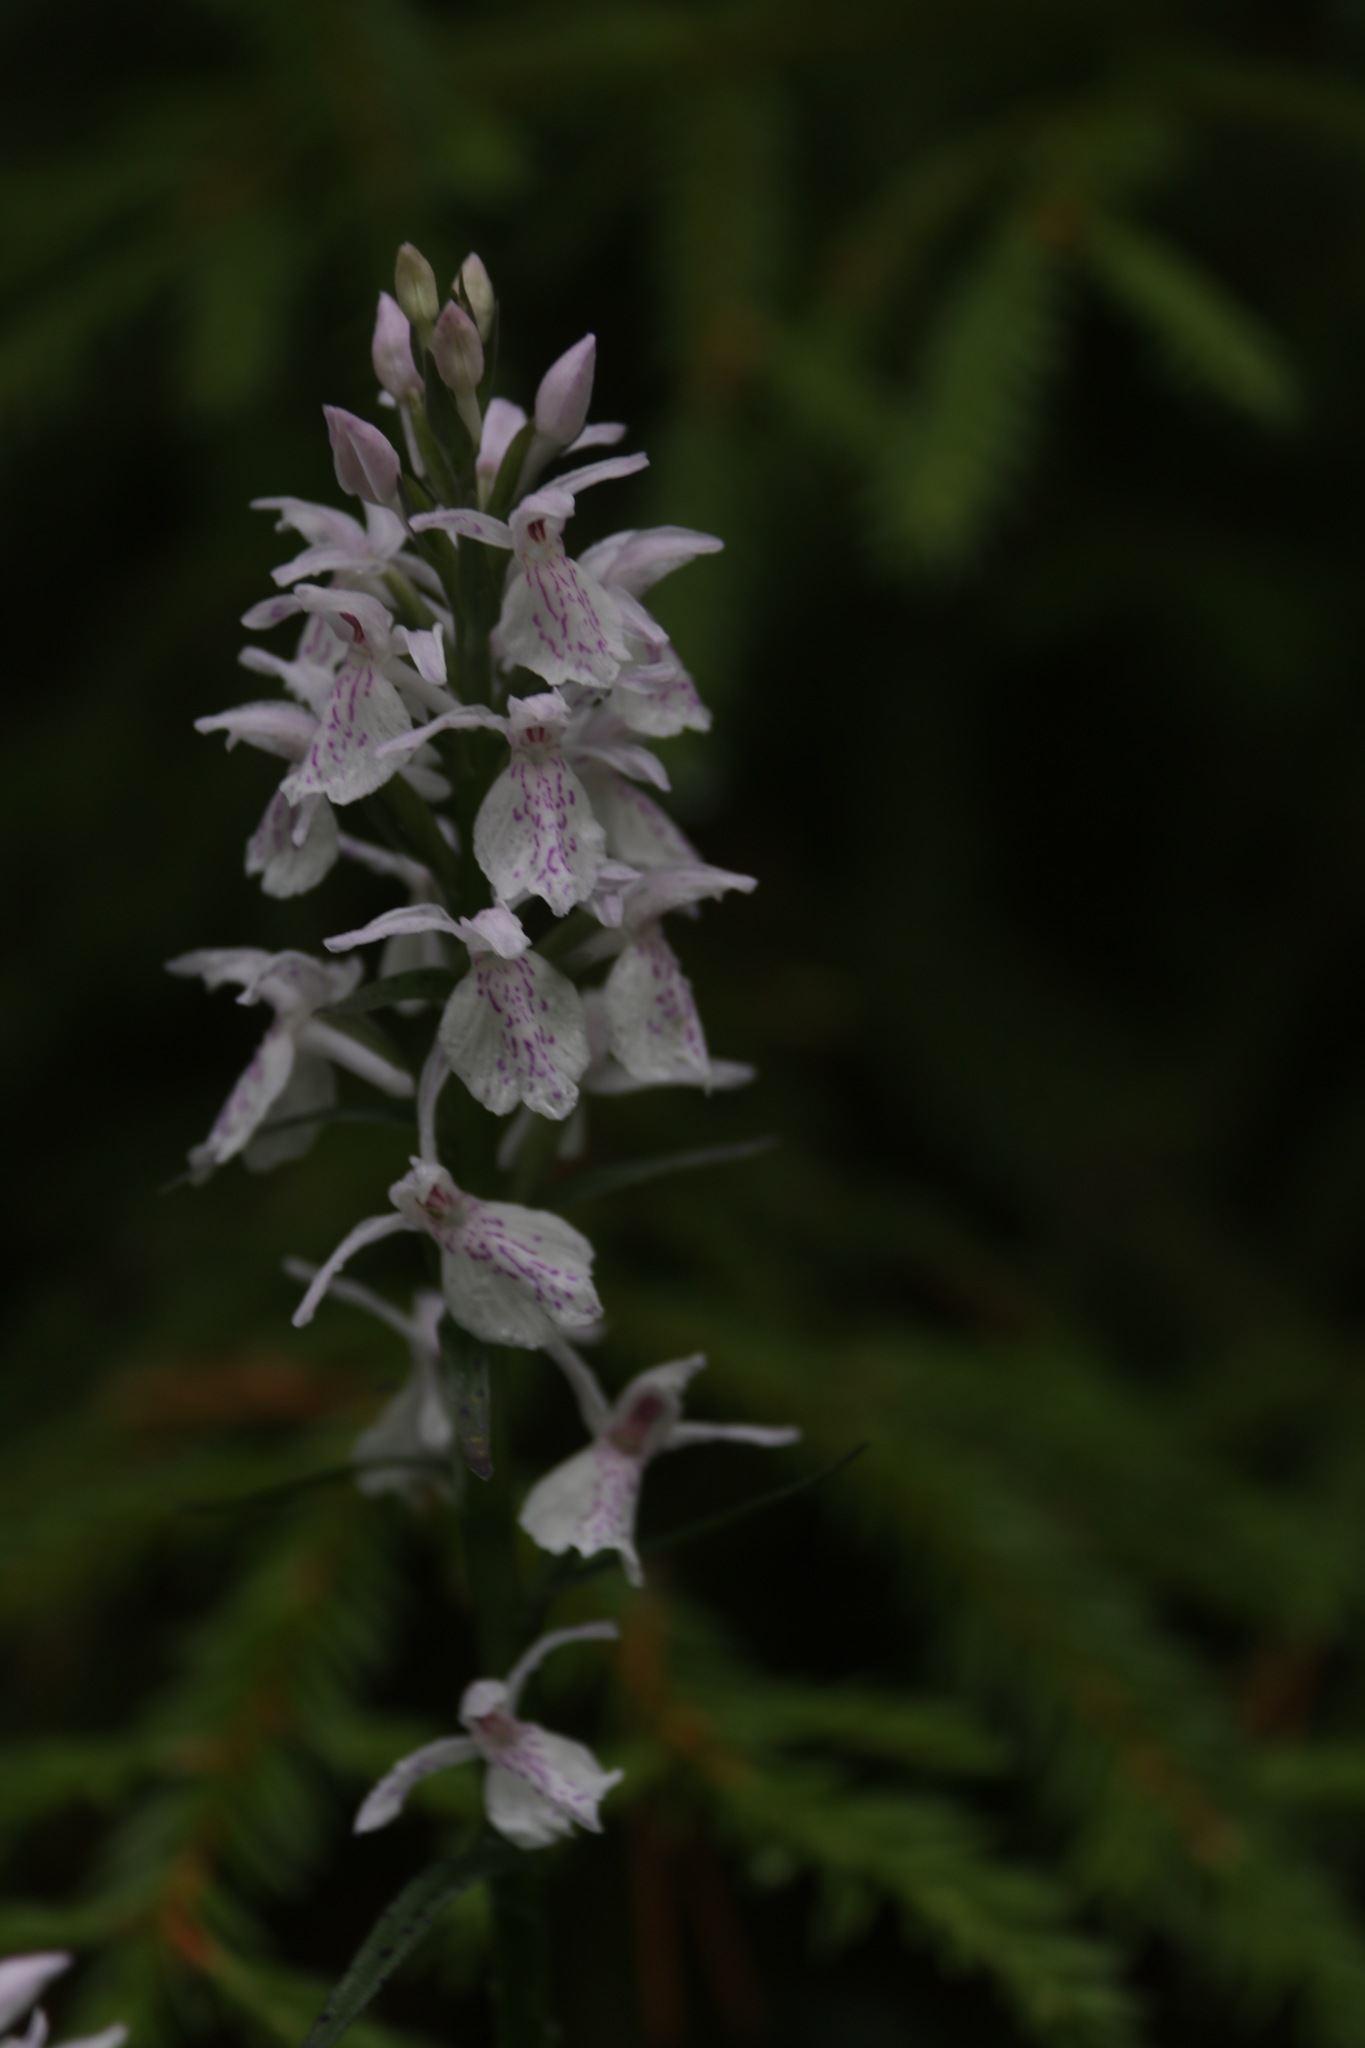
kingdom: Plantae
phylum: Tracheophyta
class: Liliopsida
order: Asparagales
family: Orchidaceae
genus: Dactylorhiza
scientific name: Dactylorhiza maculata
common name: Heath spotted-orchid
